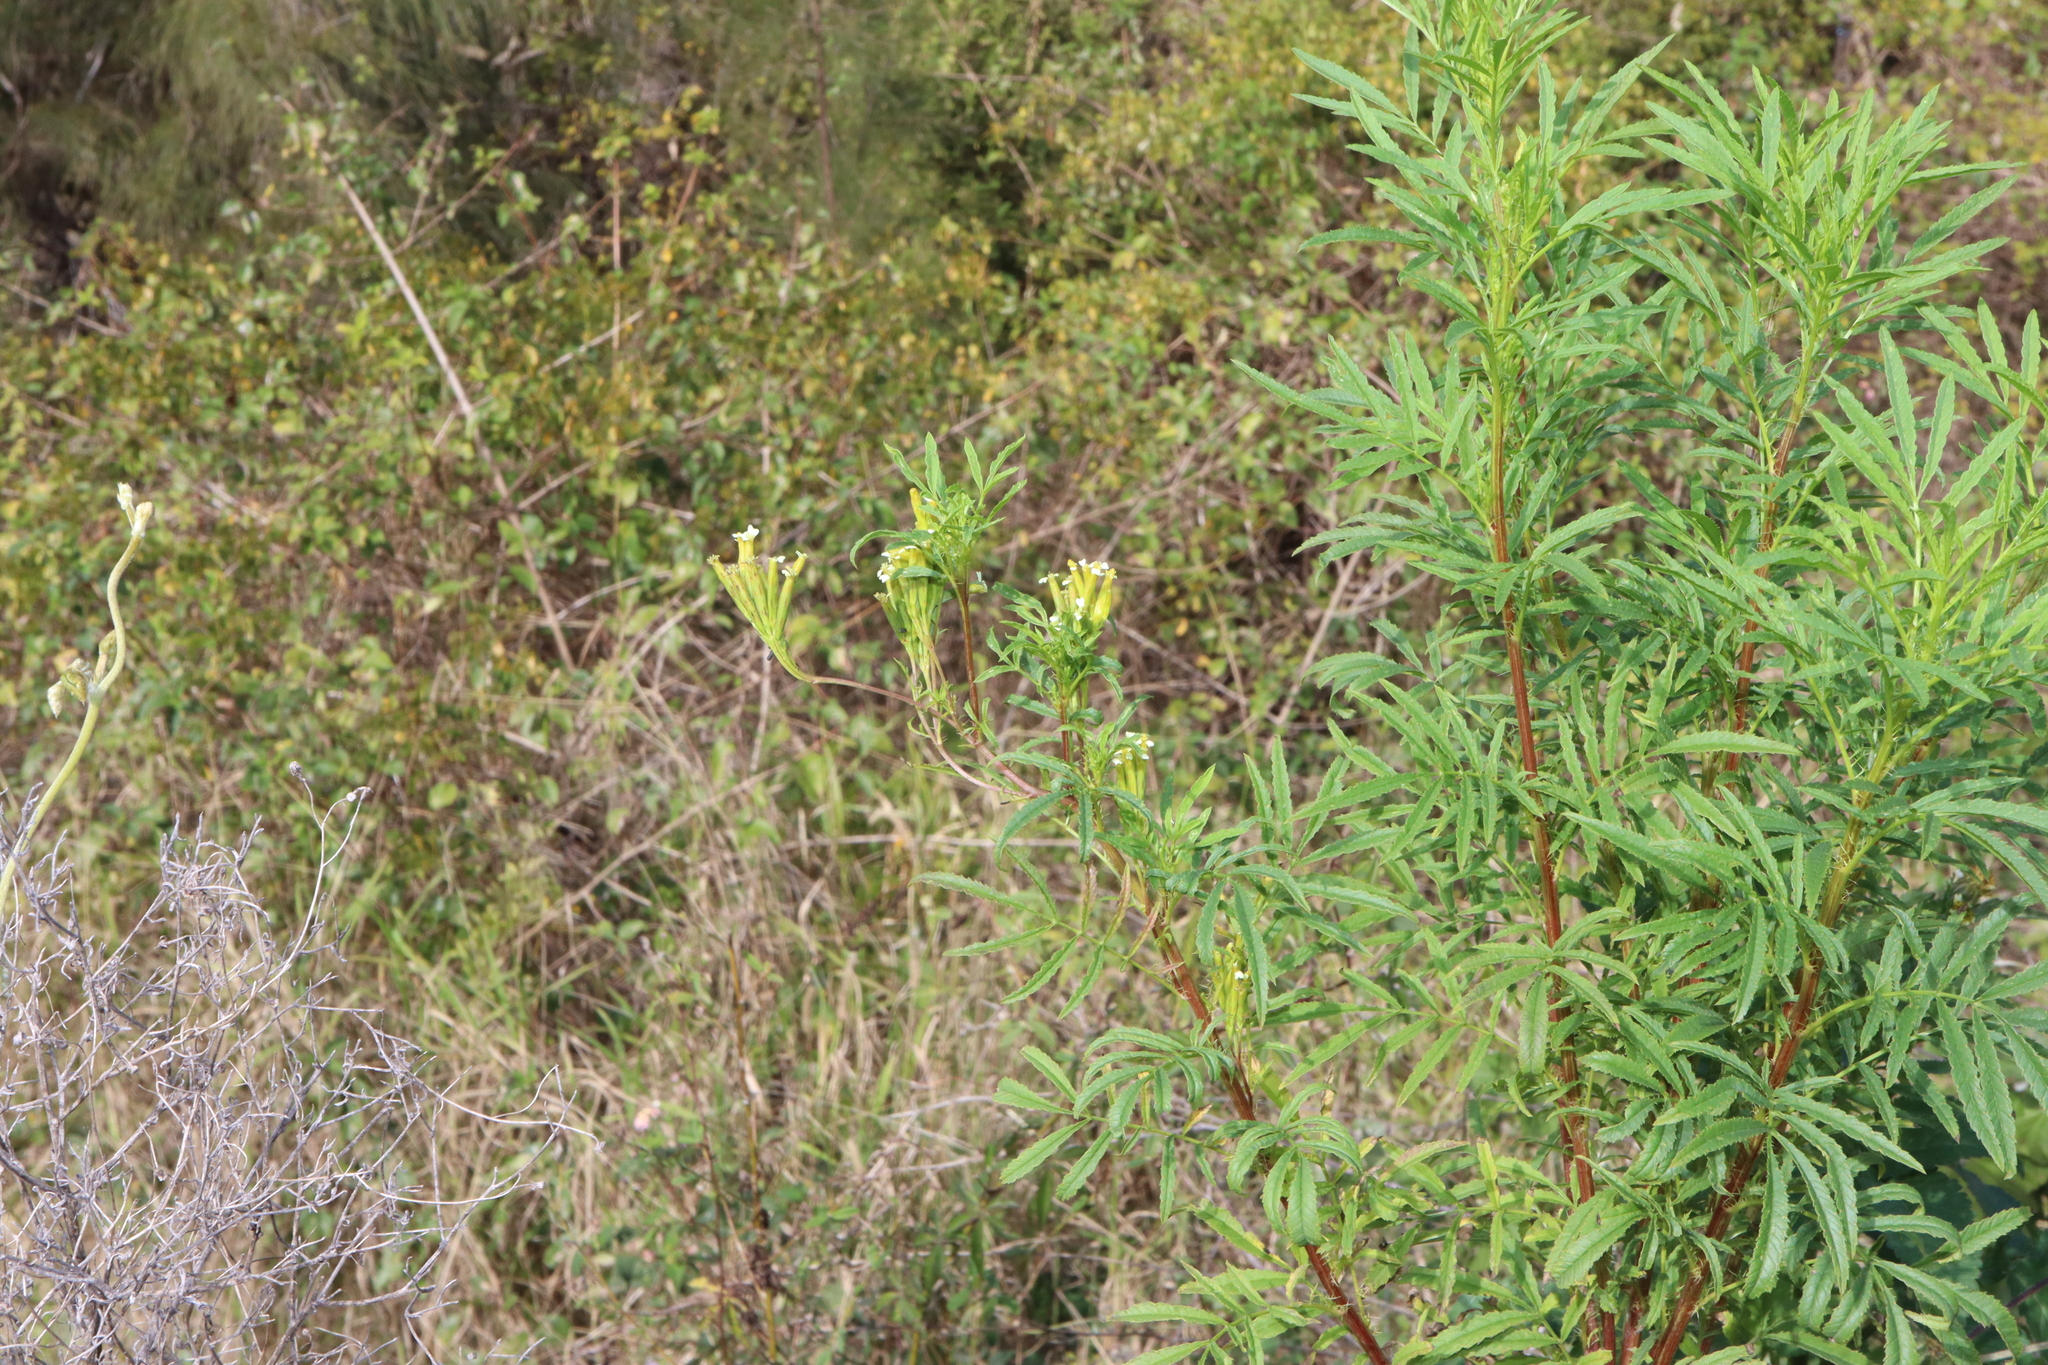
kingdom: Plantae
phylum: Tracheophyta
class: Magnoliopsida
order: Asterales
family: Asteraceae
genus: Tagetes
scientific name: Tagetes minuta
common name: Muster john henry
